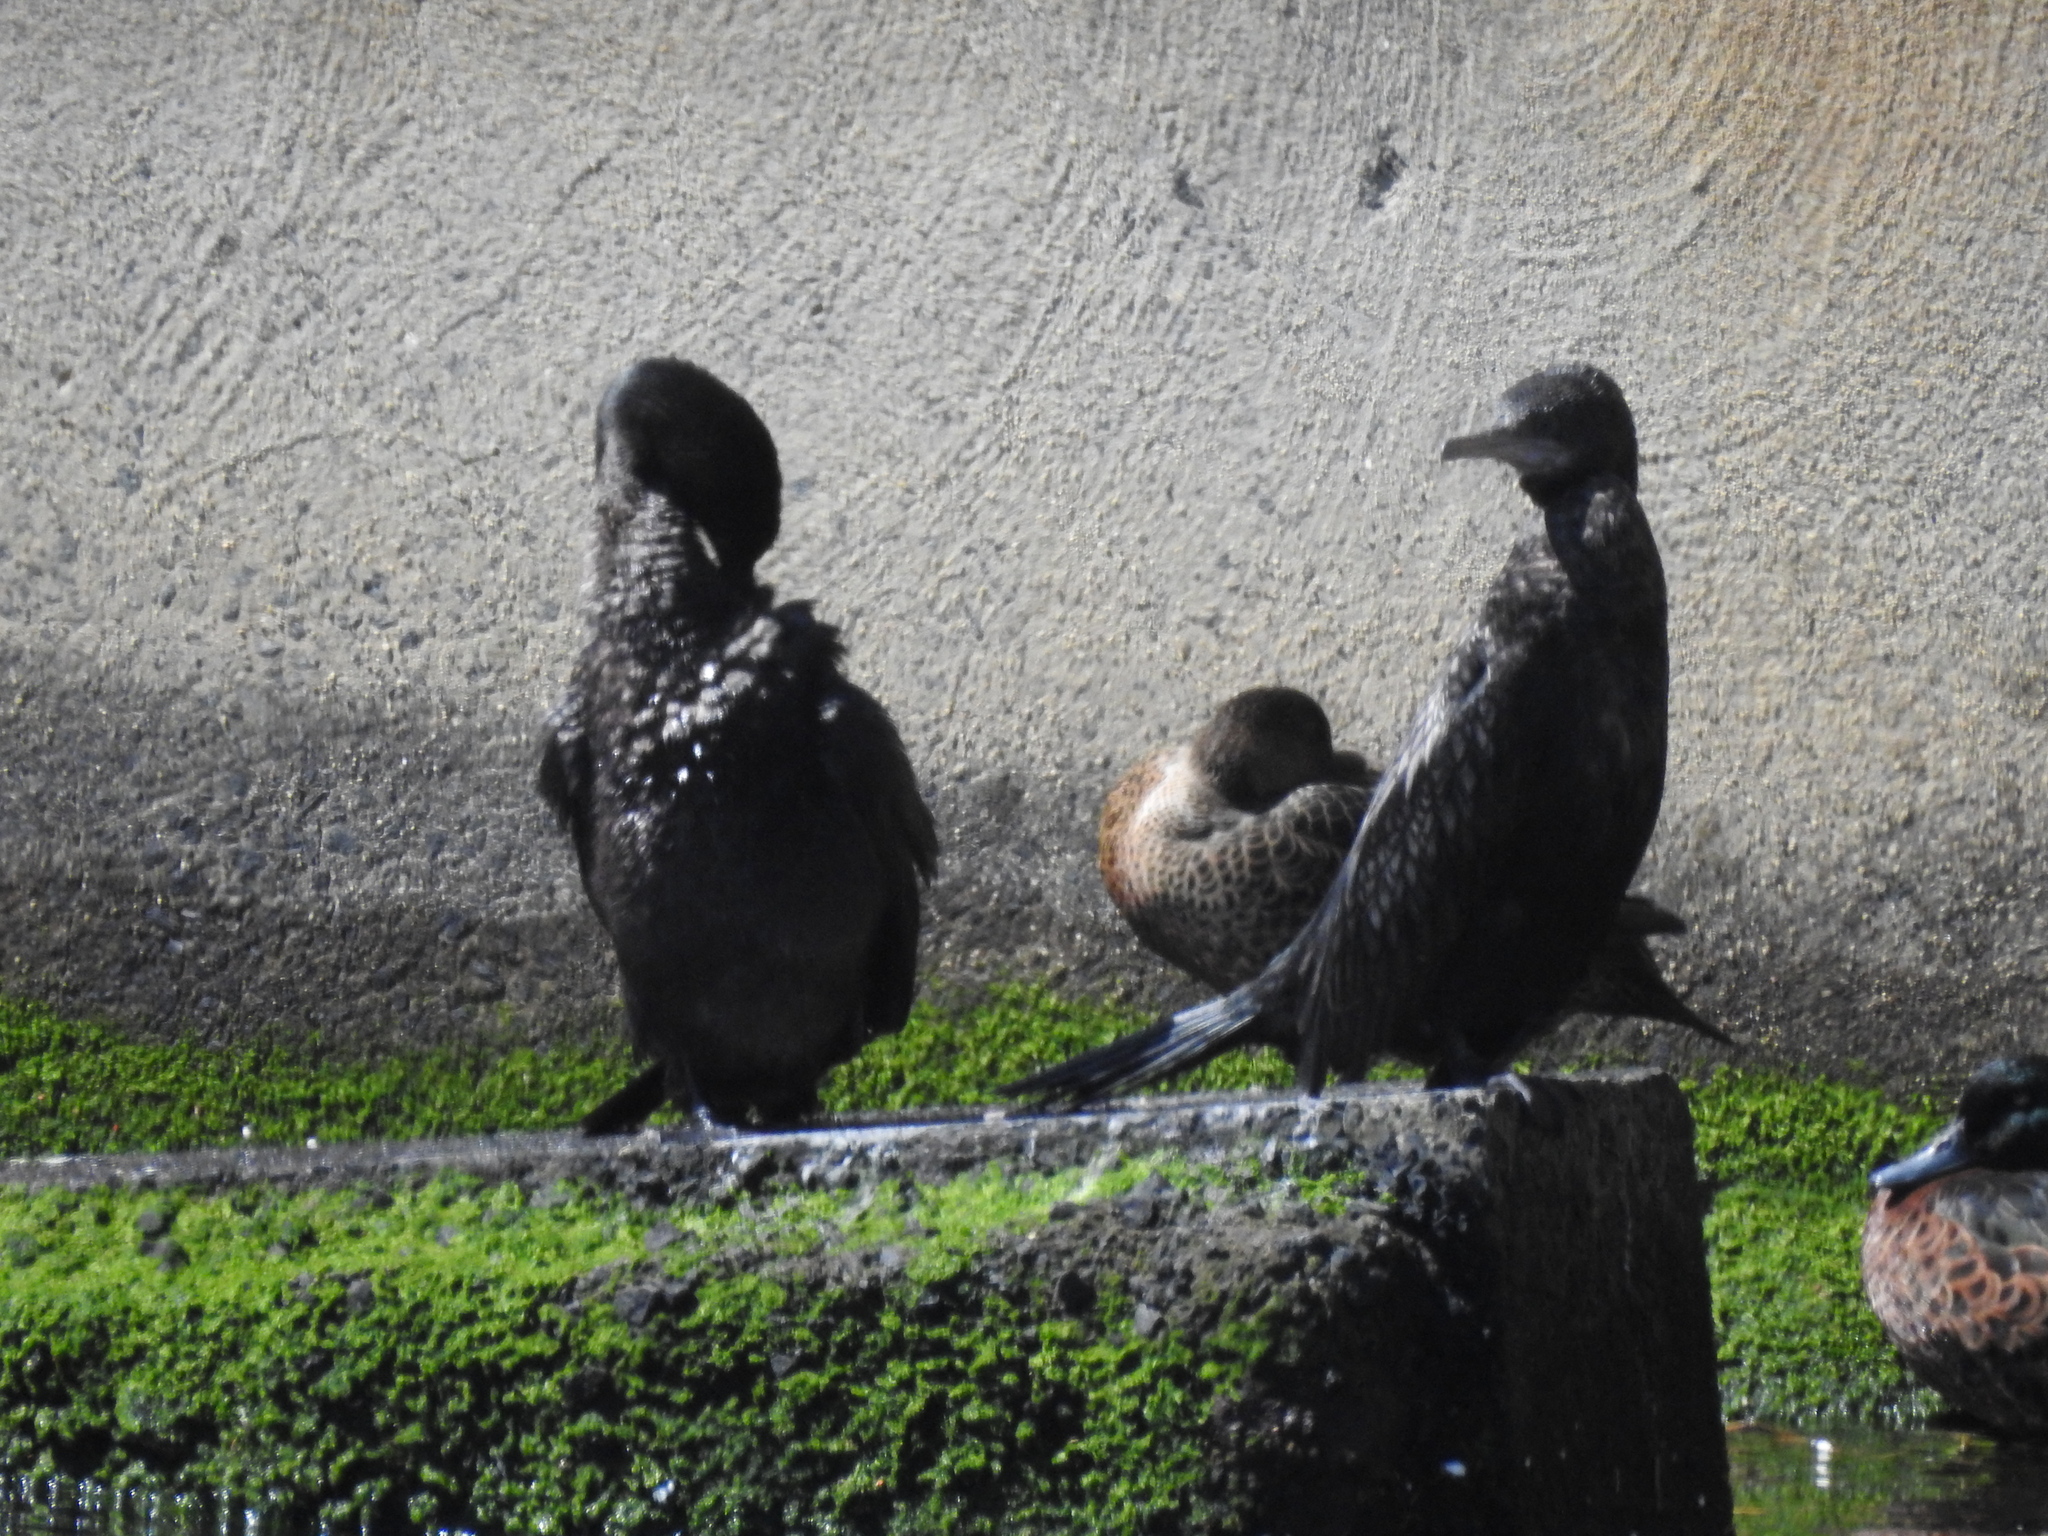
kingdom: Animalia
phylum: Chordata
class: Aves
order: Suliformes
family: Phalacrocoracidae
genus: Phalacrocorax
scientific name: Phalacrocorax sulcirostris
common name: Little black cormorant
